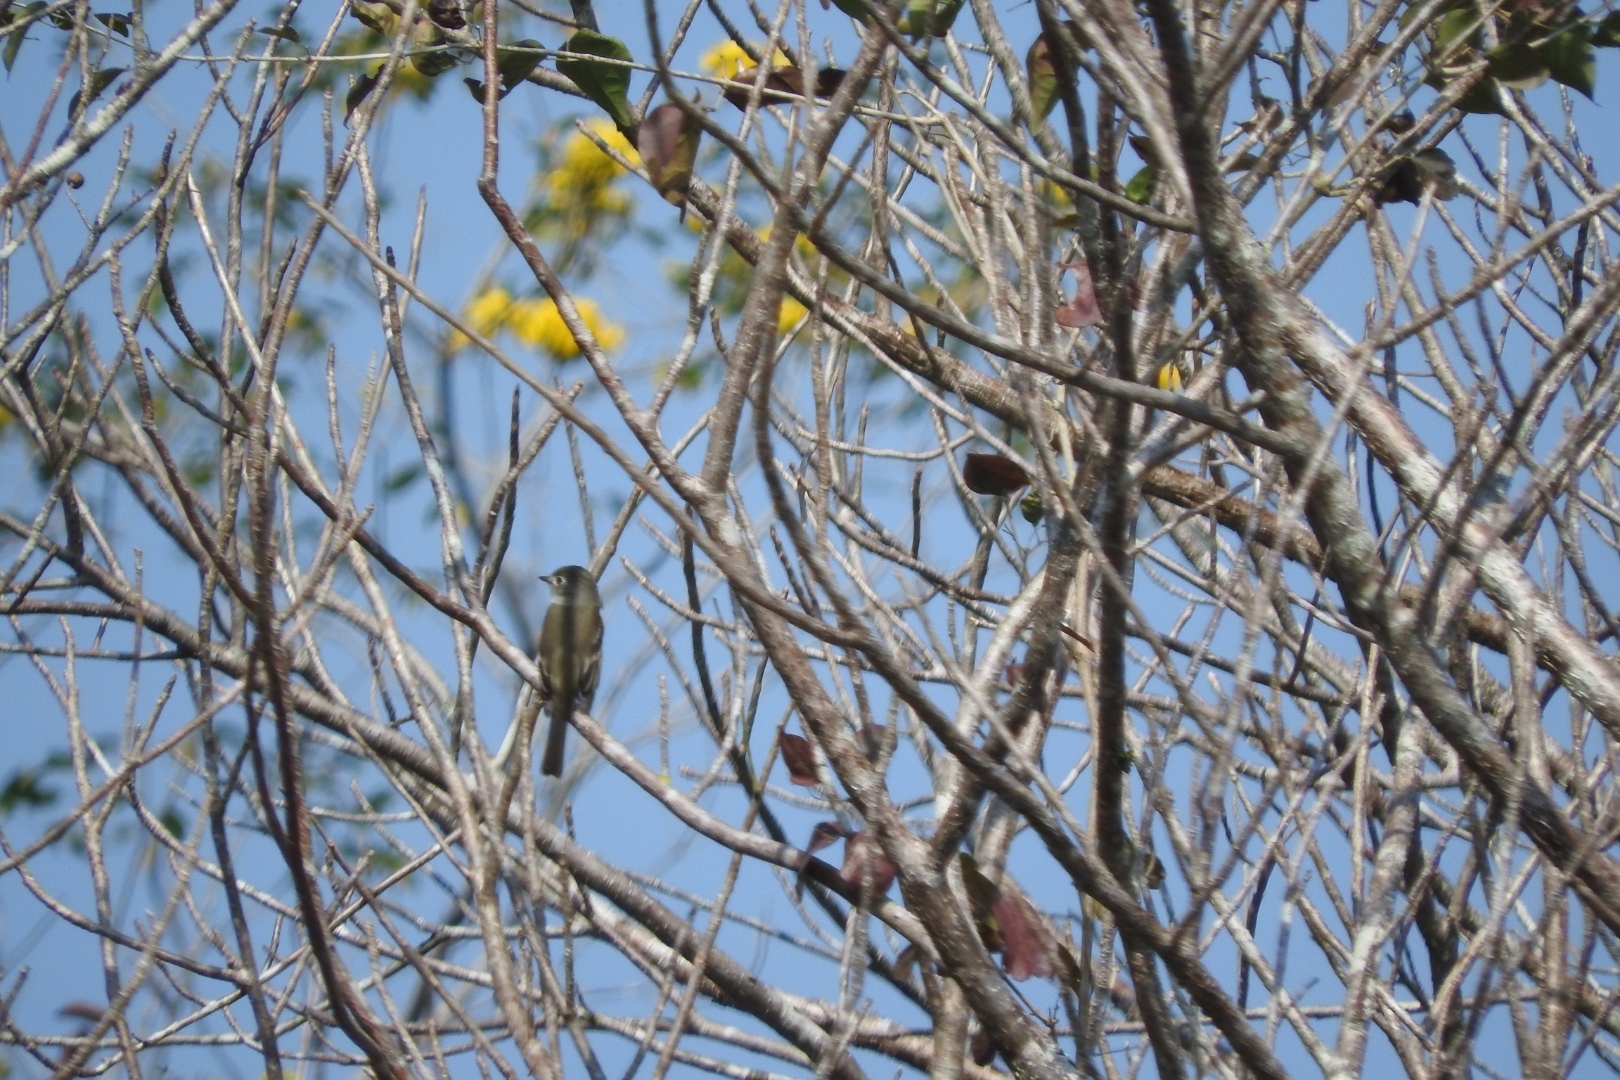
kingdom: Animalia
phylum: Chordata
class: Aves
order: Passeriformes
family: Tyrannidae
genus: Empidonax
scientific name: Empidonax minimus
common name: Least flycatcher
